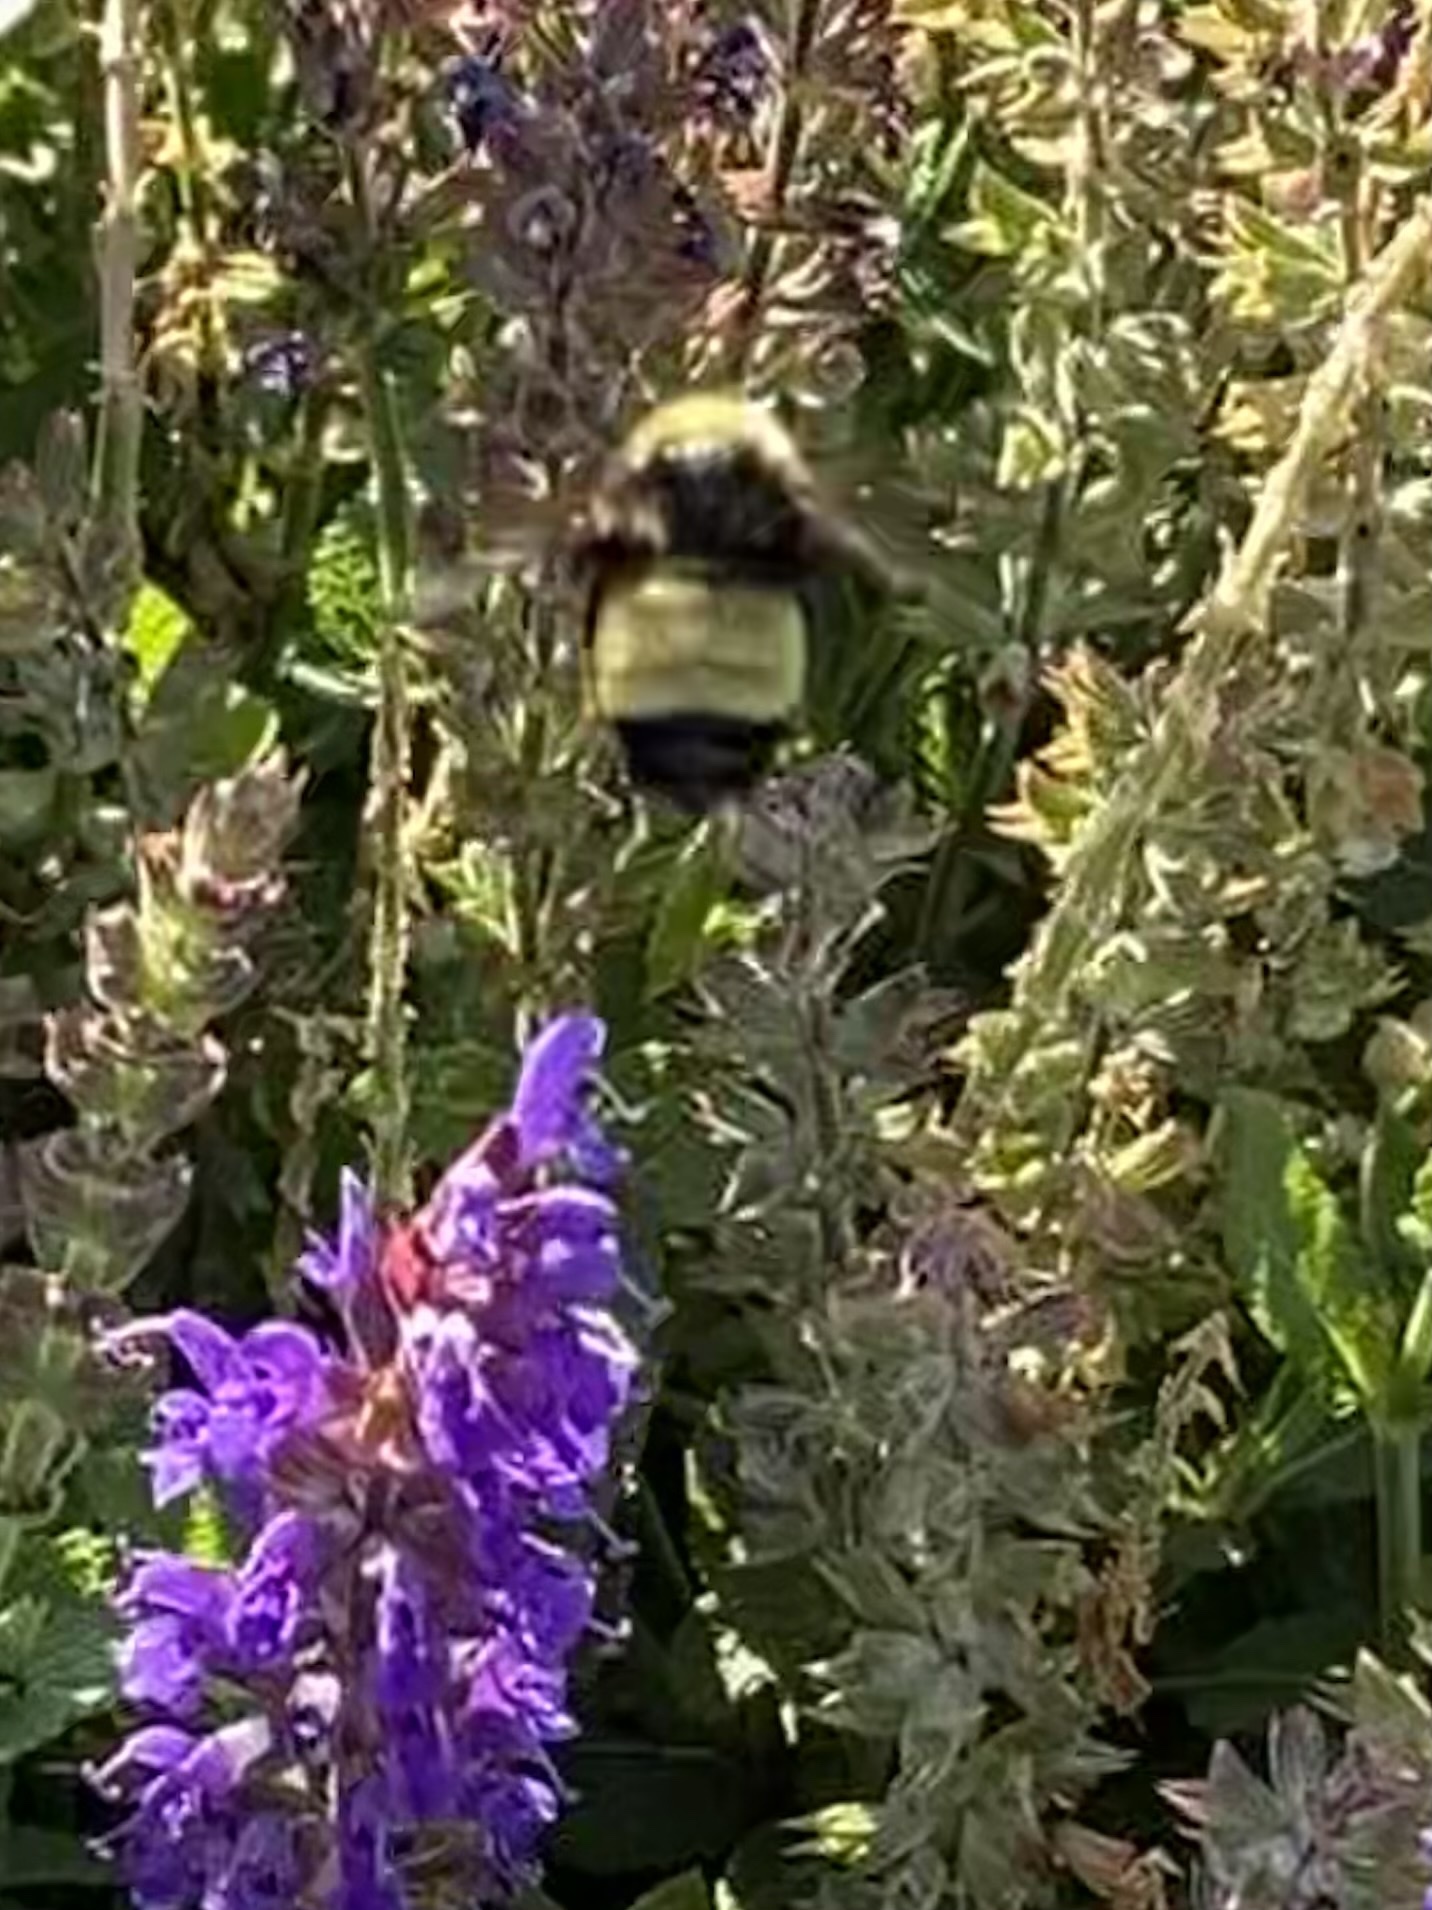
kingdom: Animalia
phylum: Arthropoda
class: Insecta
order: Hymenoptera
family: Apidae
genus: Bombus
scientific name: Bombus pensylvanicus
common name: Bumble bee
